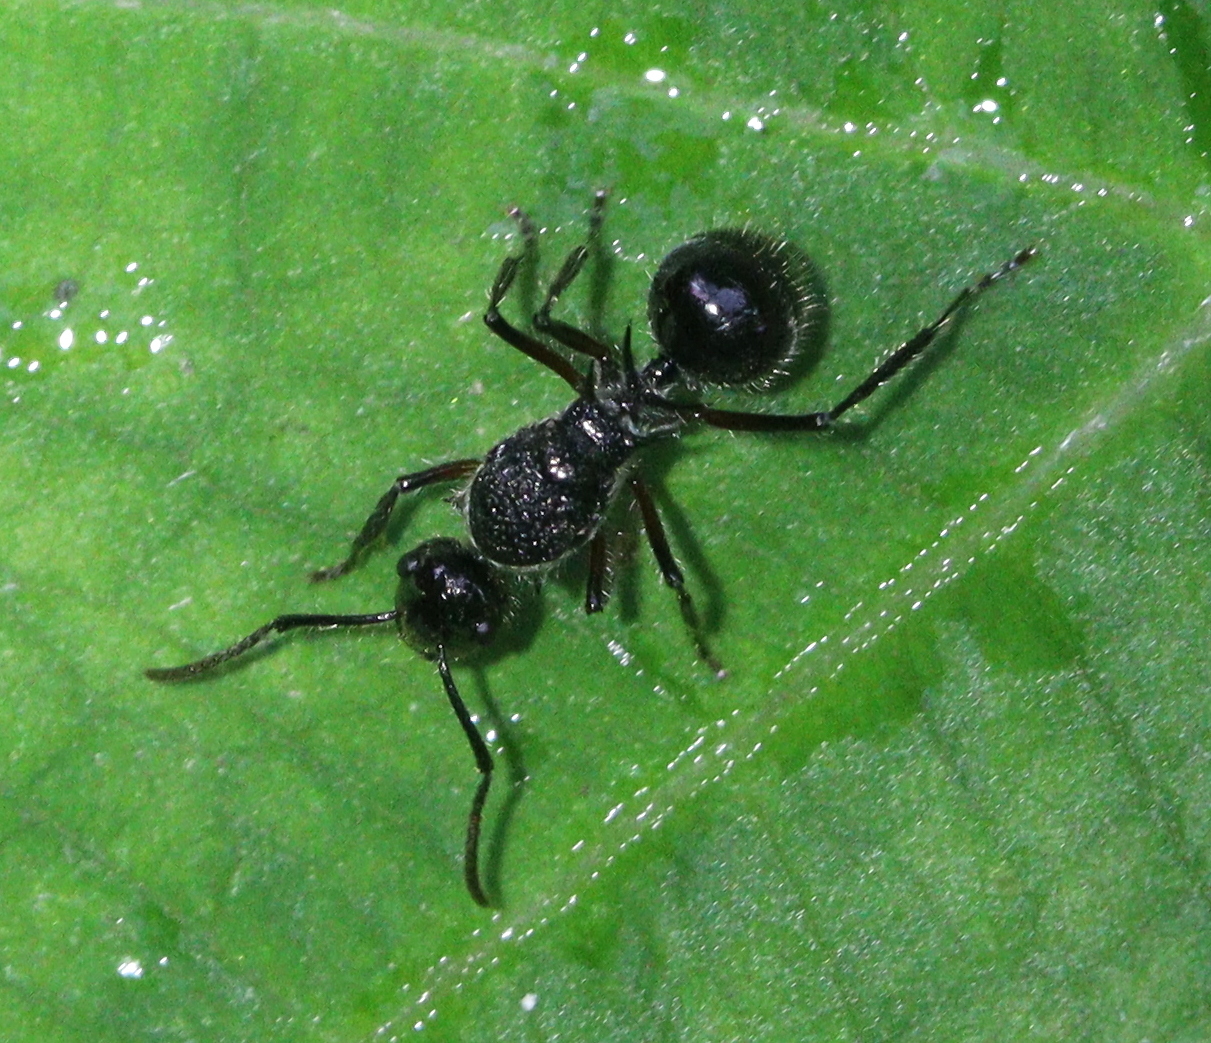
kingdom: Animalia
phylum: Arthropoda
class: Insecta
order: Hymenoptera
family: Formicidae
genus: Polyrhachis
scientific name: Polyrhachis furcata
